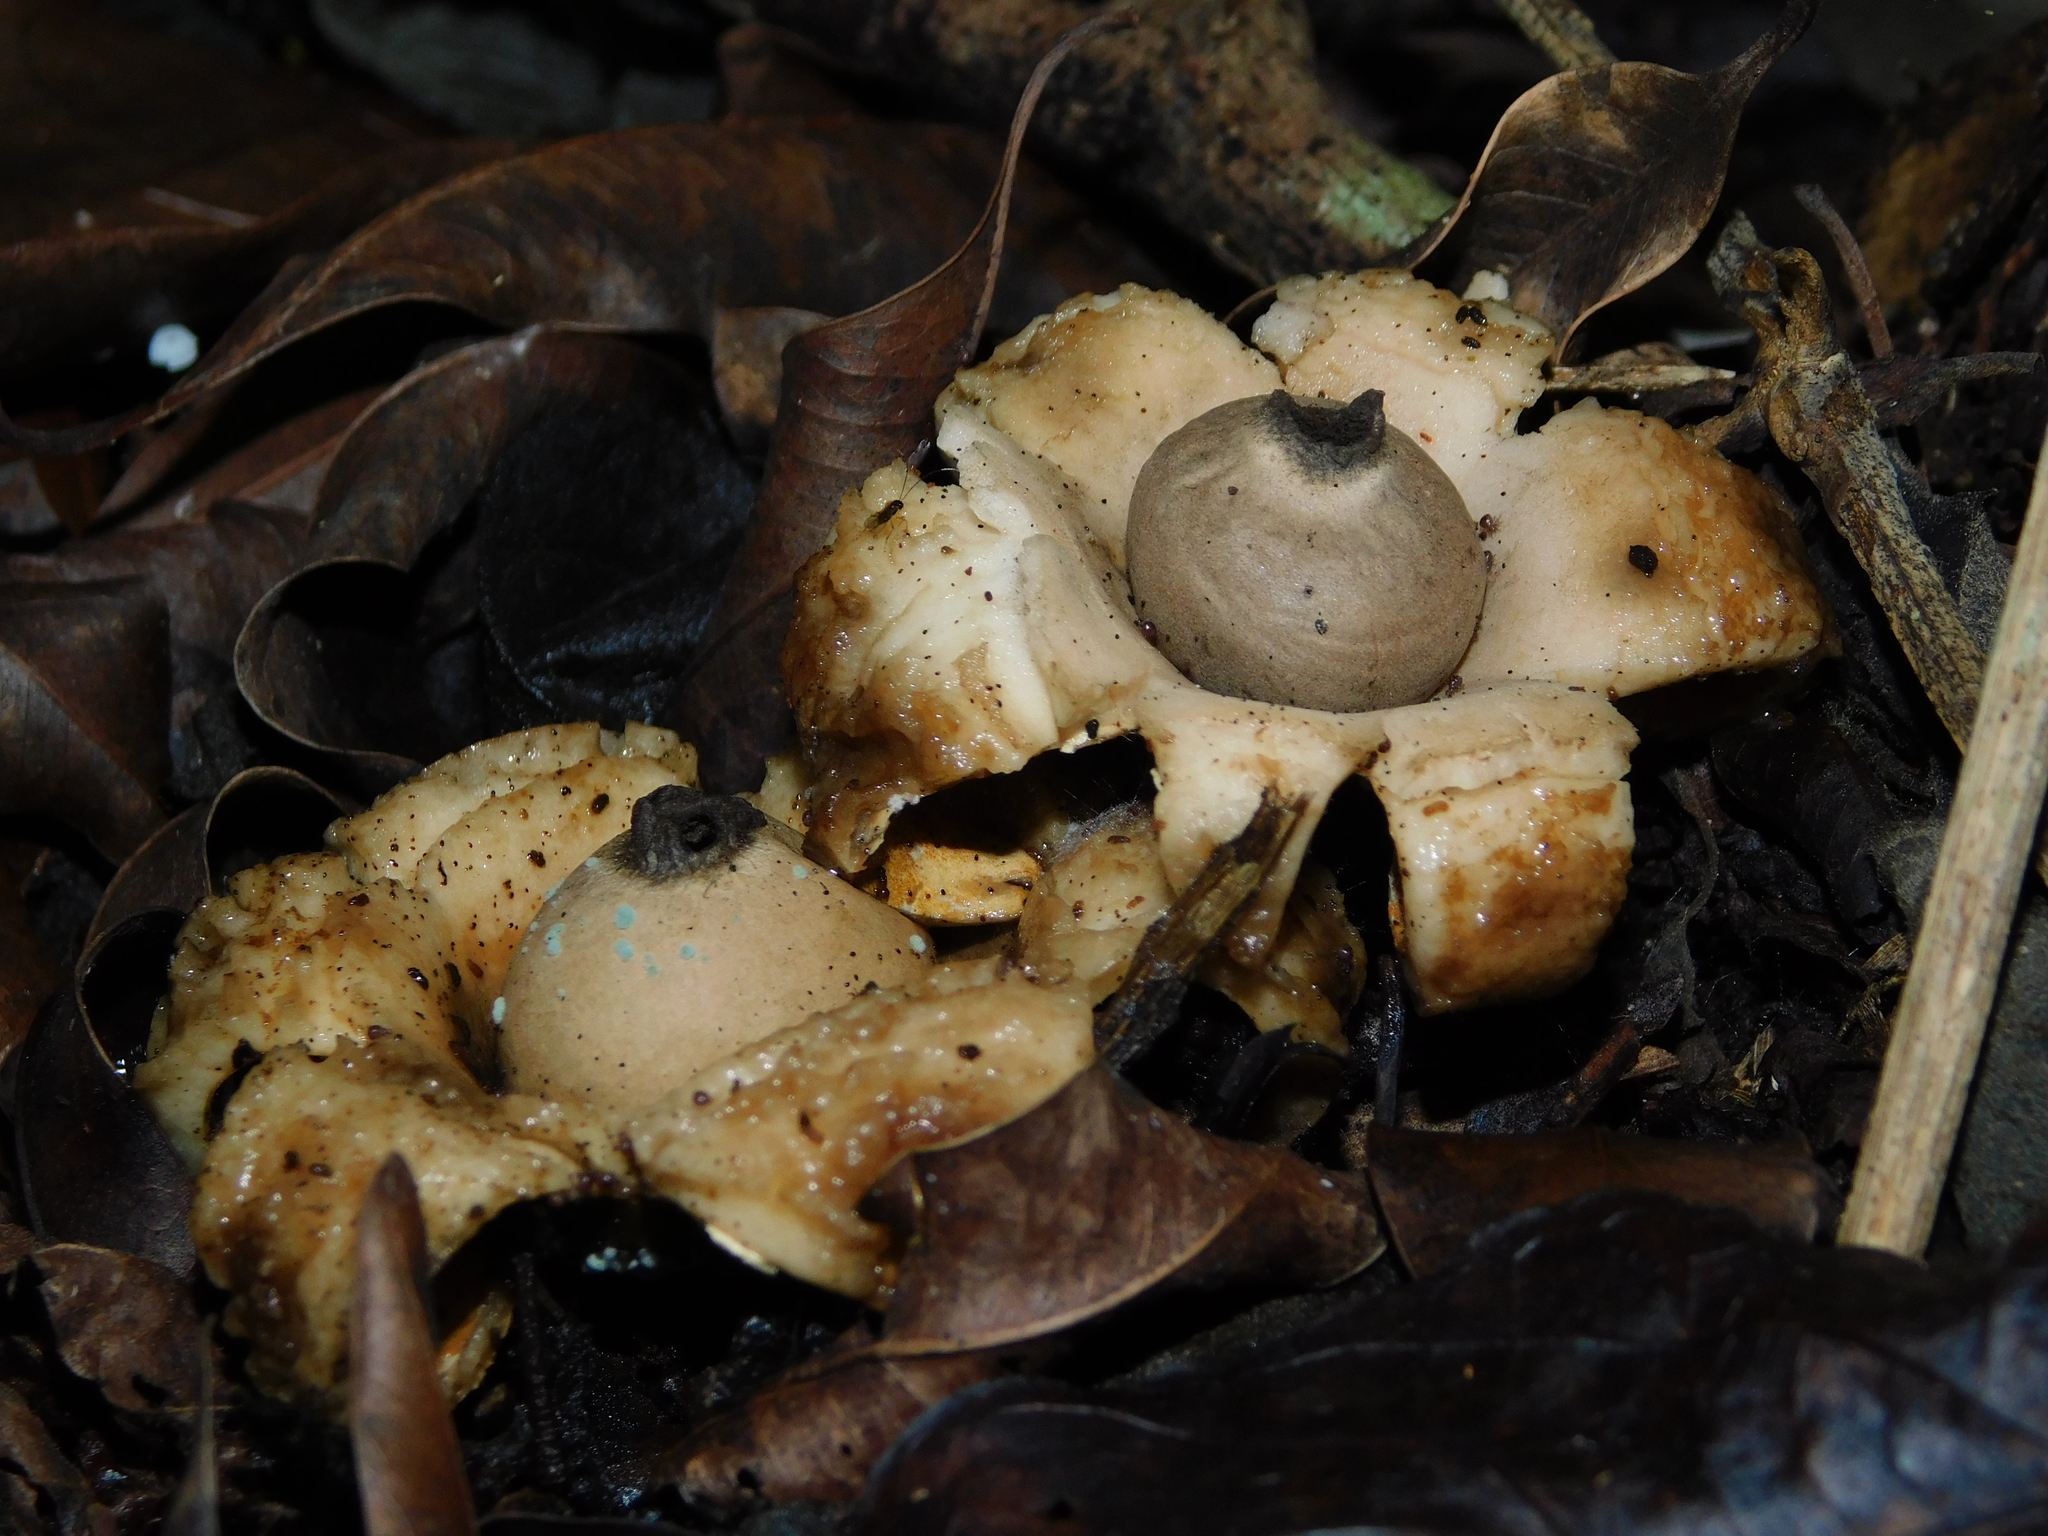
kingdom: Fungi
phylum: Basidiomycota
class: Agaricomycetes
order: Geastrales
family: Geastraceae
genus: Geastrum
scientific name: Geastrum saccatum
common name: Rounded earthstar
